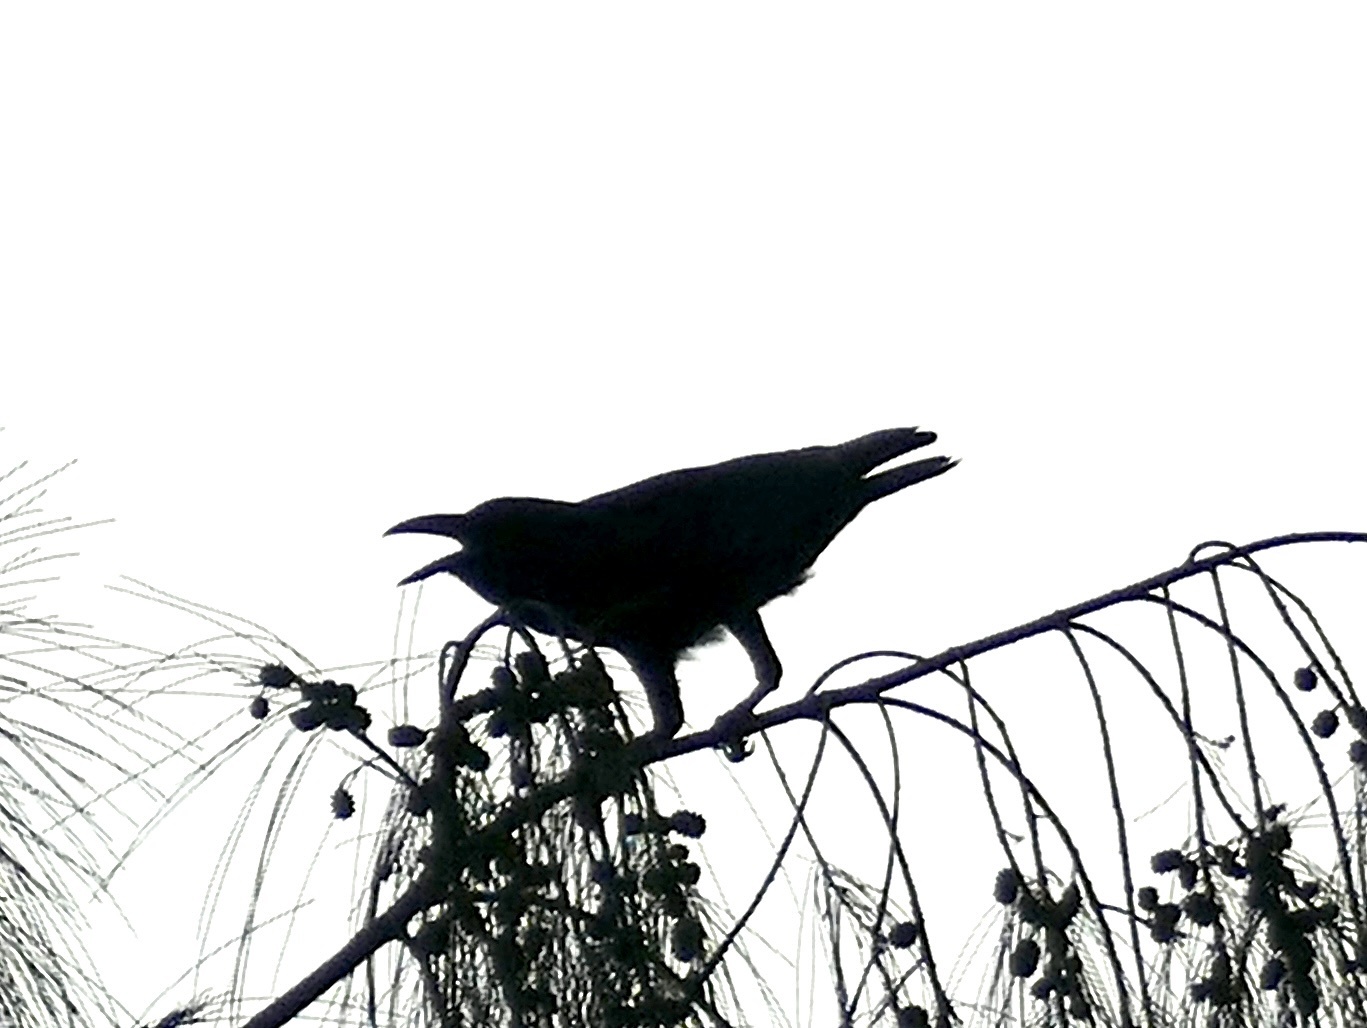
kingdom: Animalia
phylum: Chordata
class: Aves
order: Passeriformes
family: Corvidae
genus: Corvus
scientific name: Corvus enca
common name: Slender-billed crow
